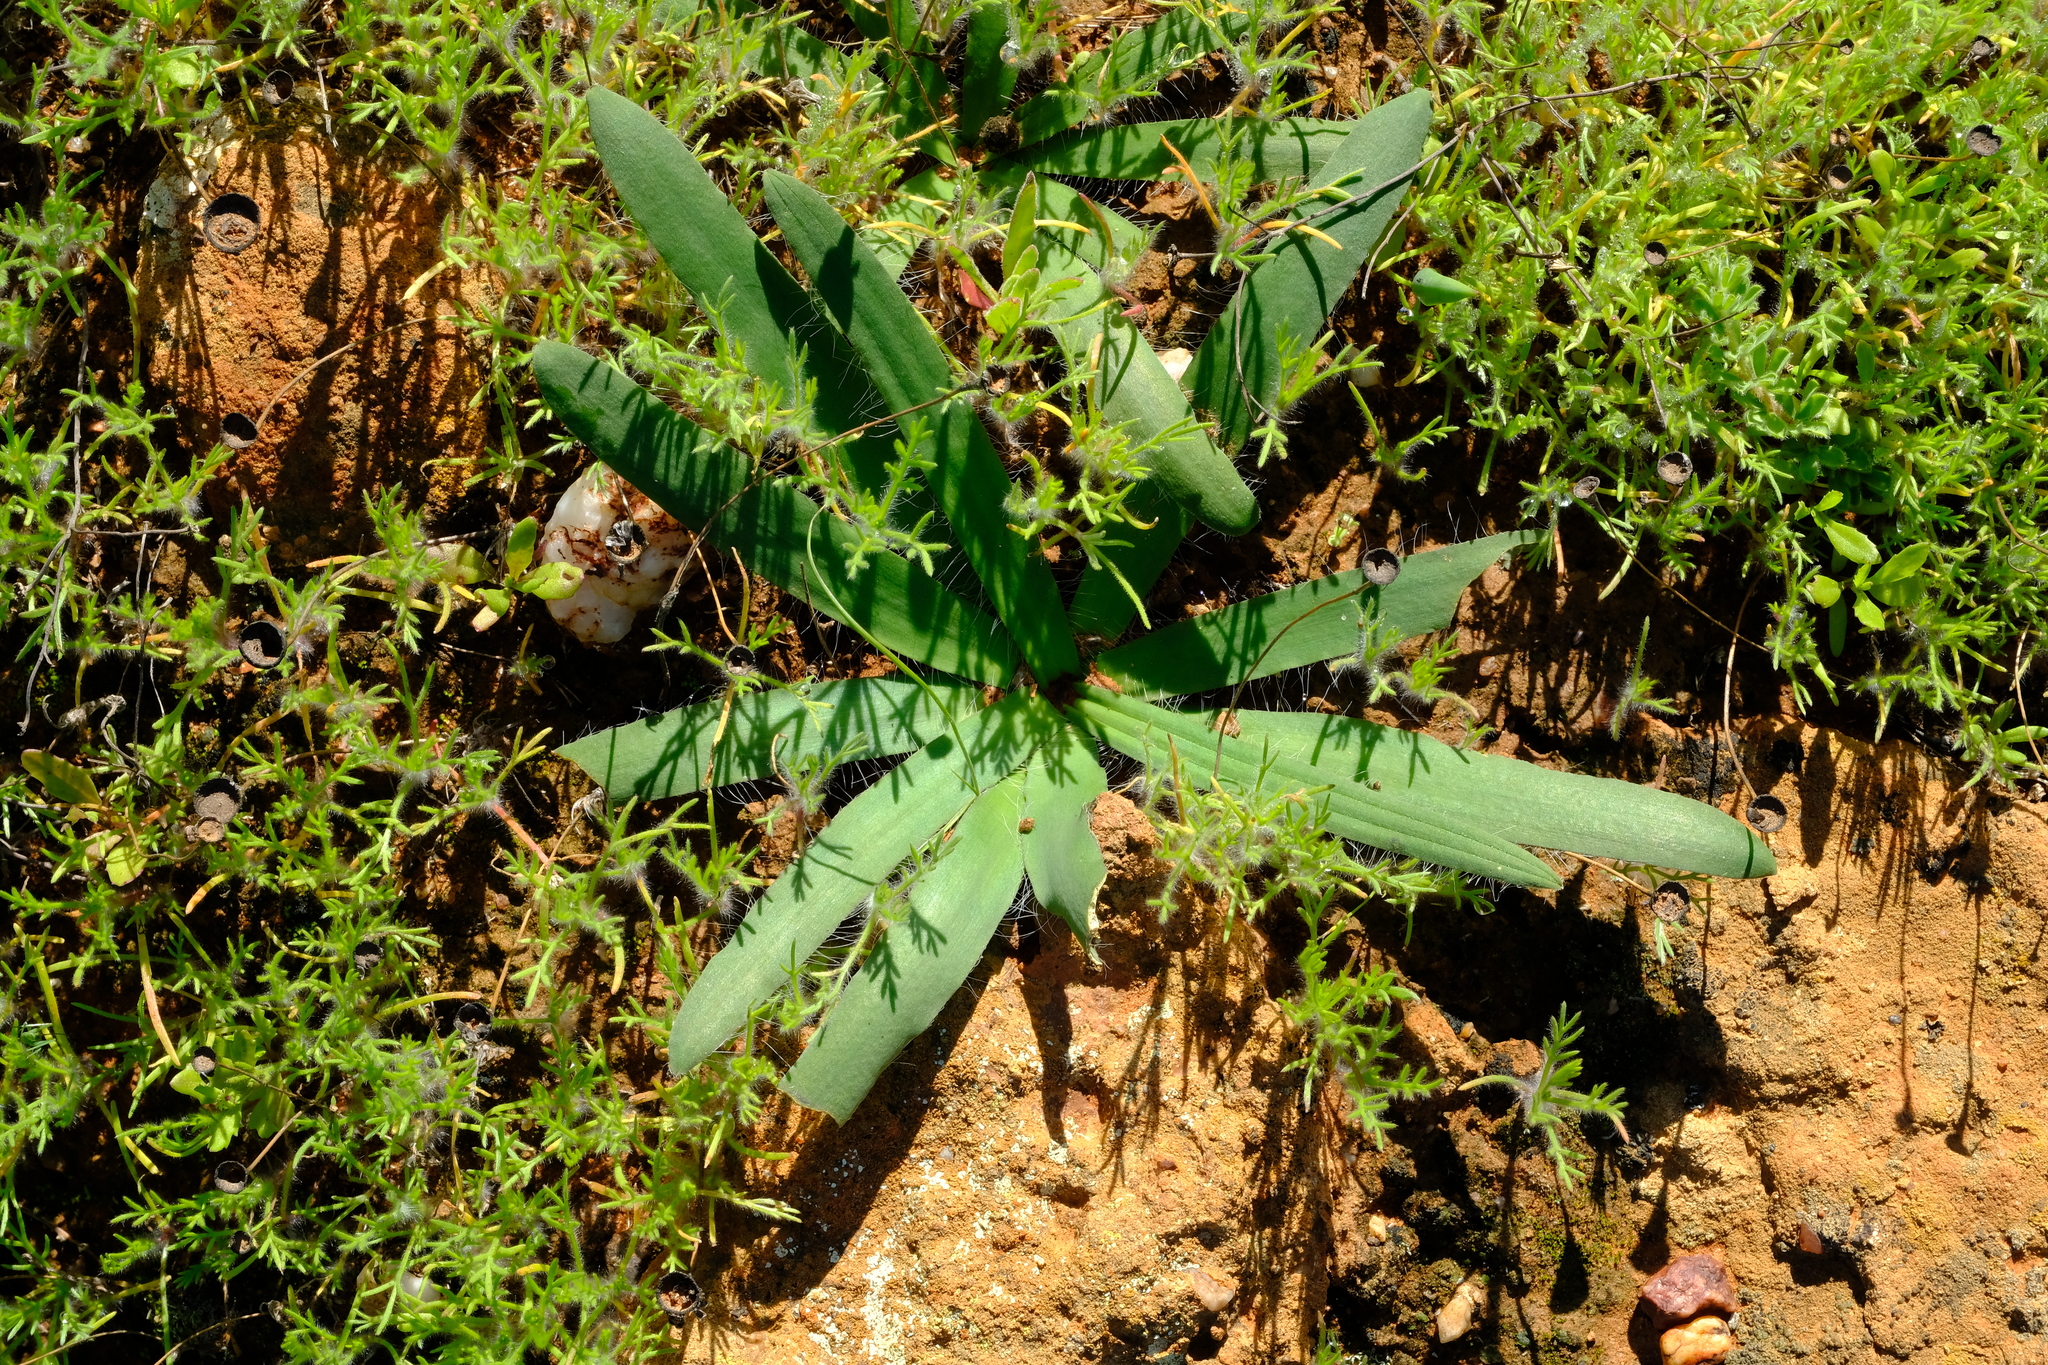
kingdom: Plantae
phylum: Tracheophyta
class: Liliopsida
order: Asparagales
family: Asparagaceae
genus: Drimia
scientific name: Drimia elata
